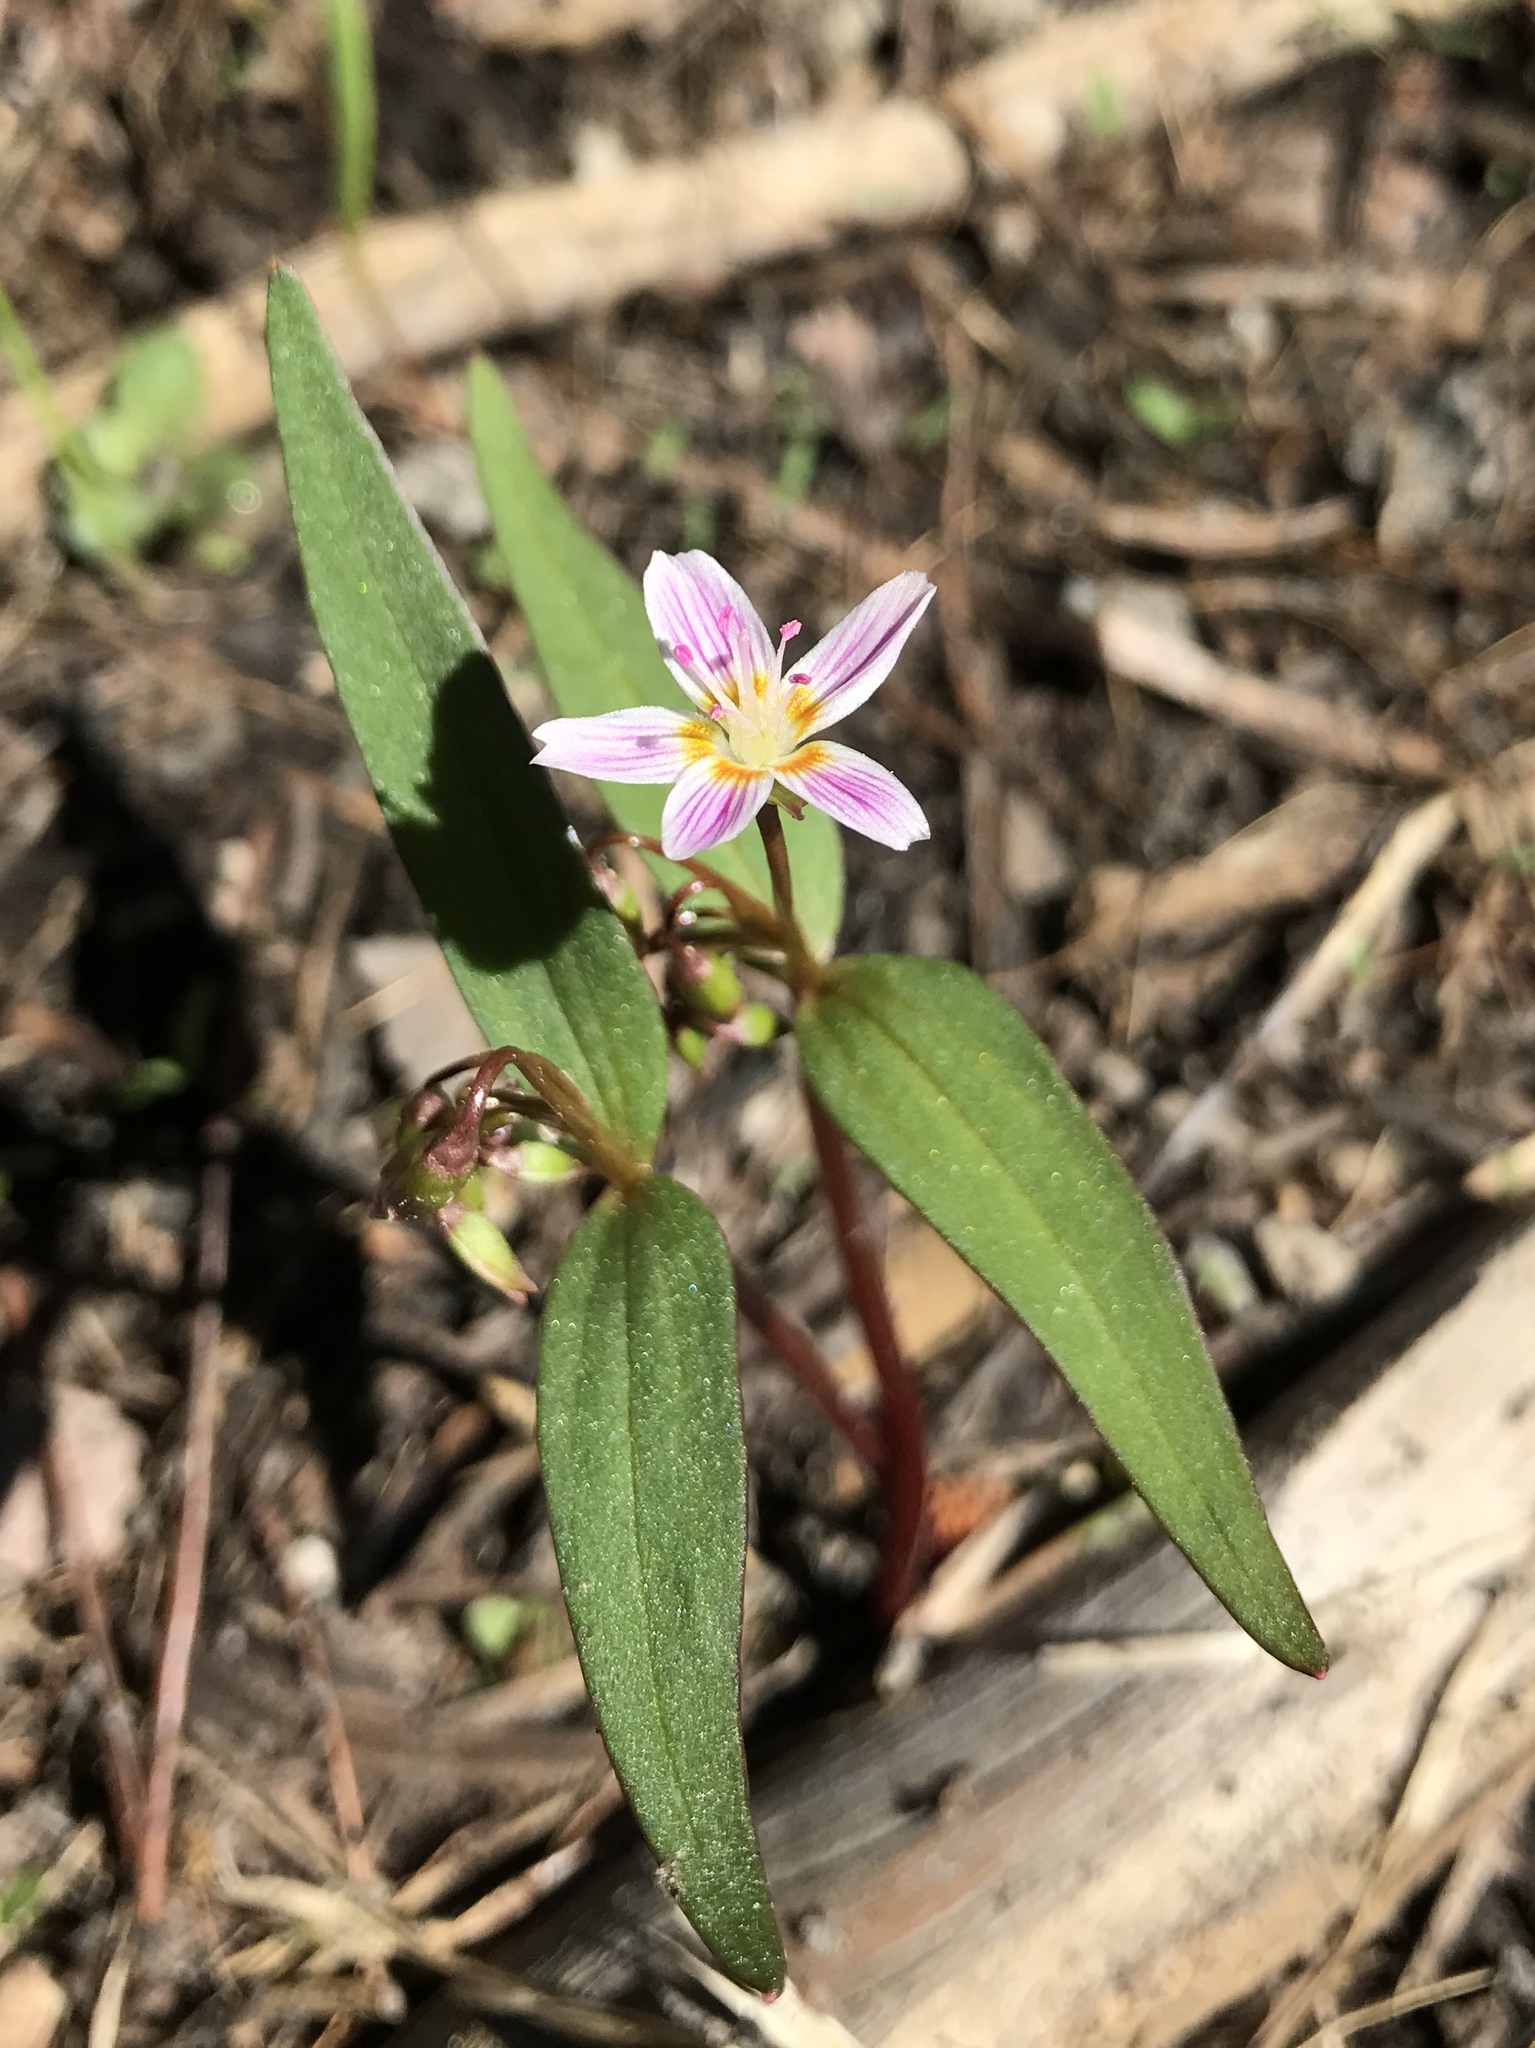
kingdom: Plantae
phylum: Tracheophyta
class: Magnoliopsida
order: Caryophyllales
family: Montiaceae
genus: Claytonia
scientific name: Claytonia lanceolata
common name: Western spring-beauty
